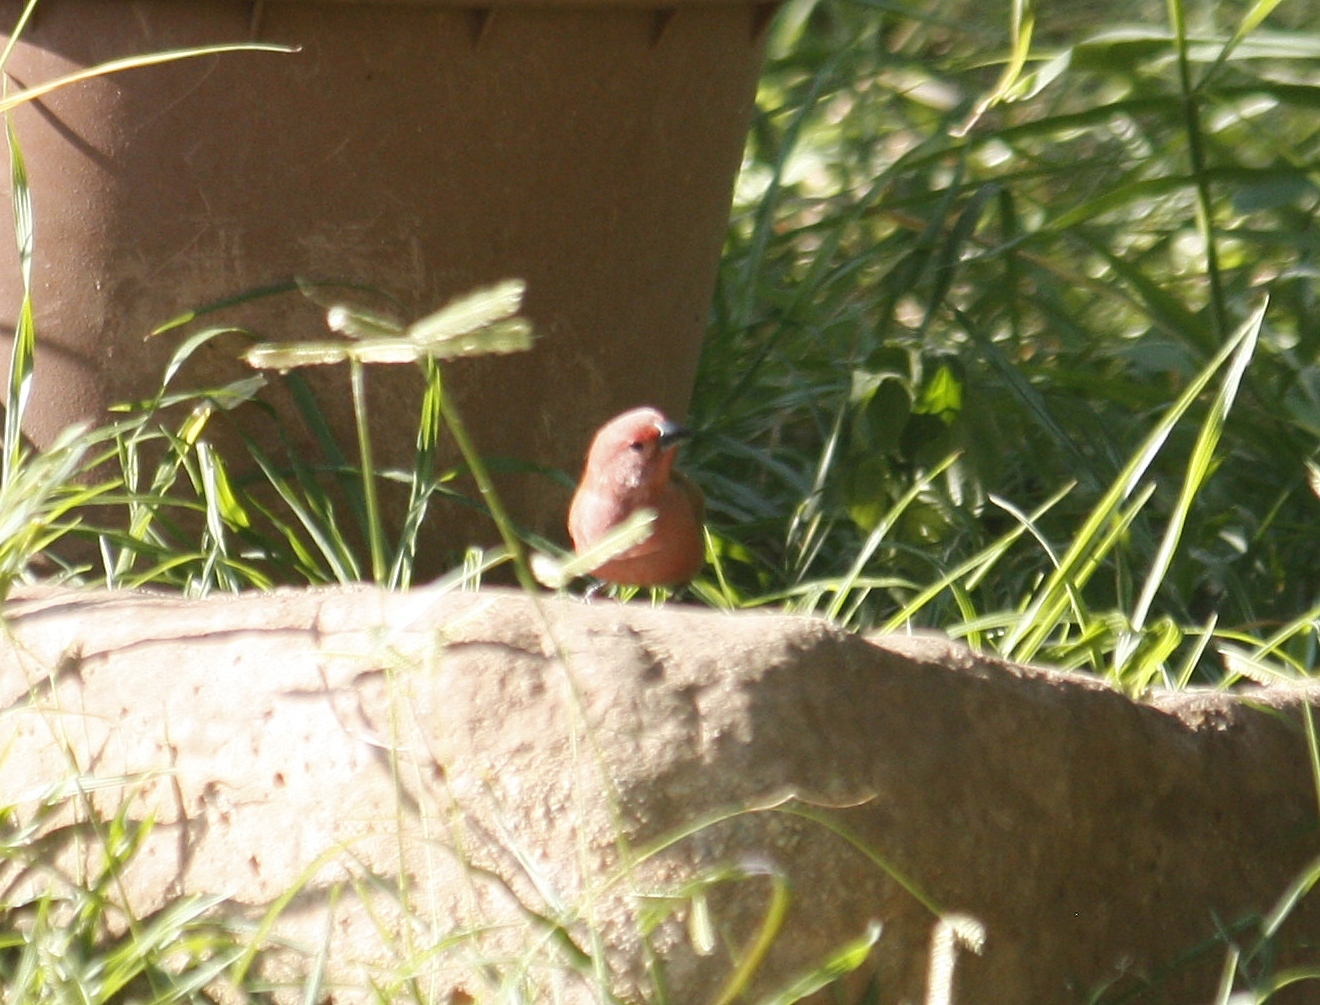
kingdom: Animalia
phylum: Chordata
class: Aves
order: Passeriformes
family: Estrildidae
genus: Lagonosticta
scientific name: Lagonosticta rhodopareia
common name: Jameson's firefinch
